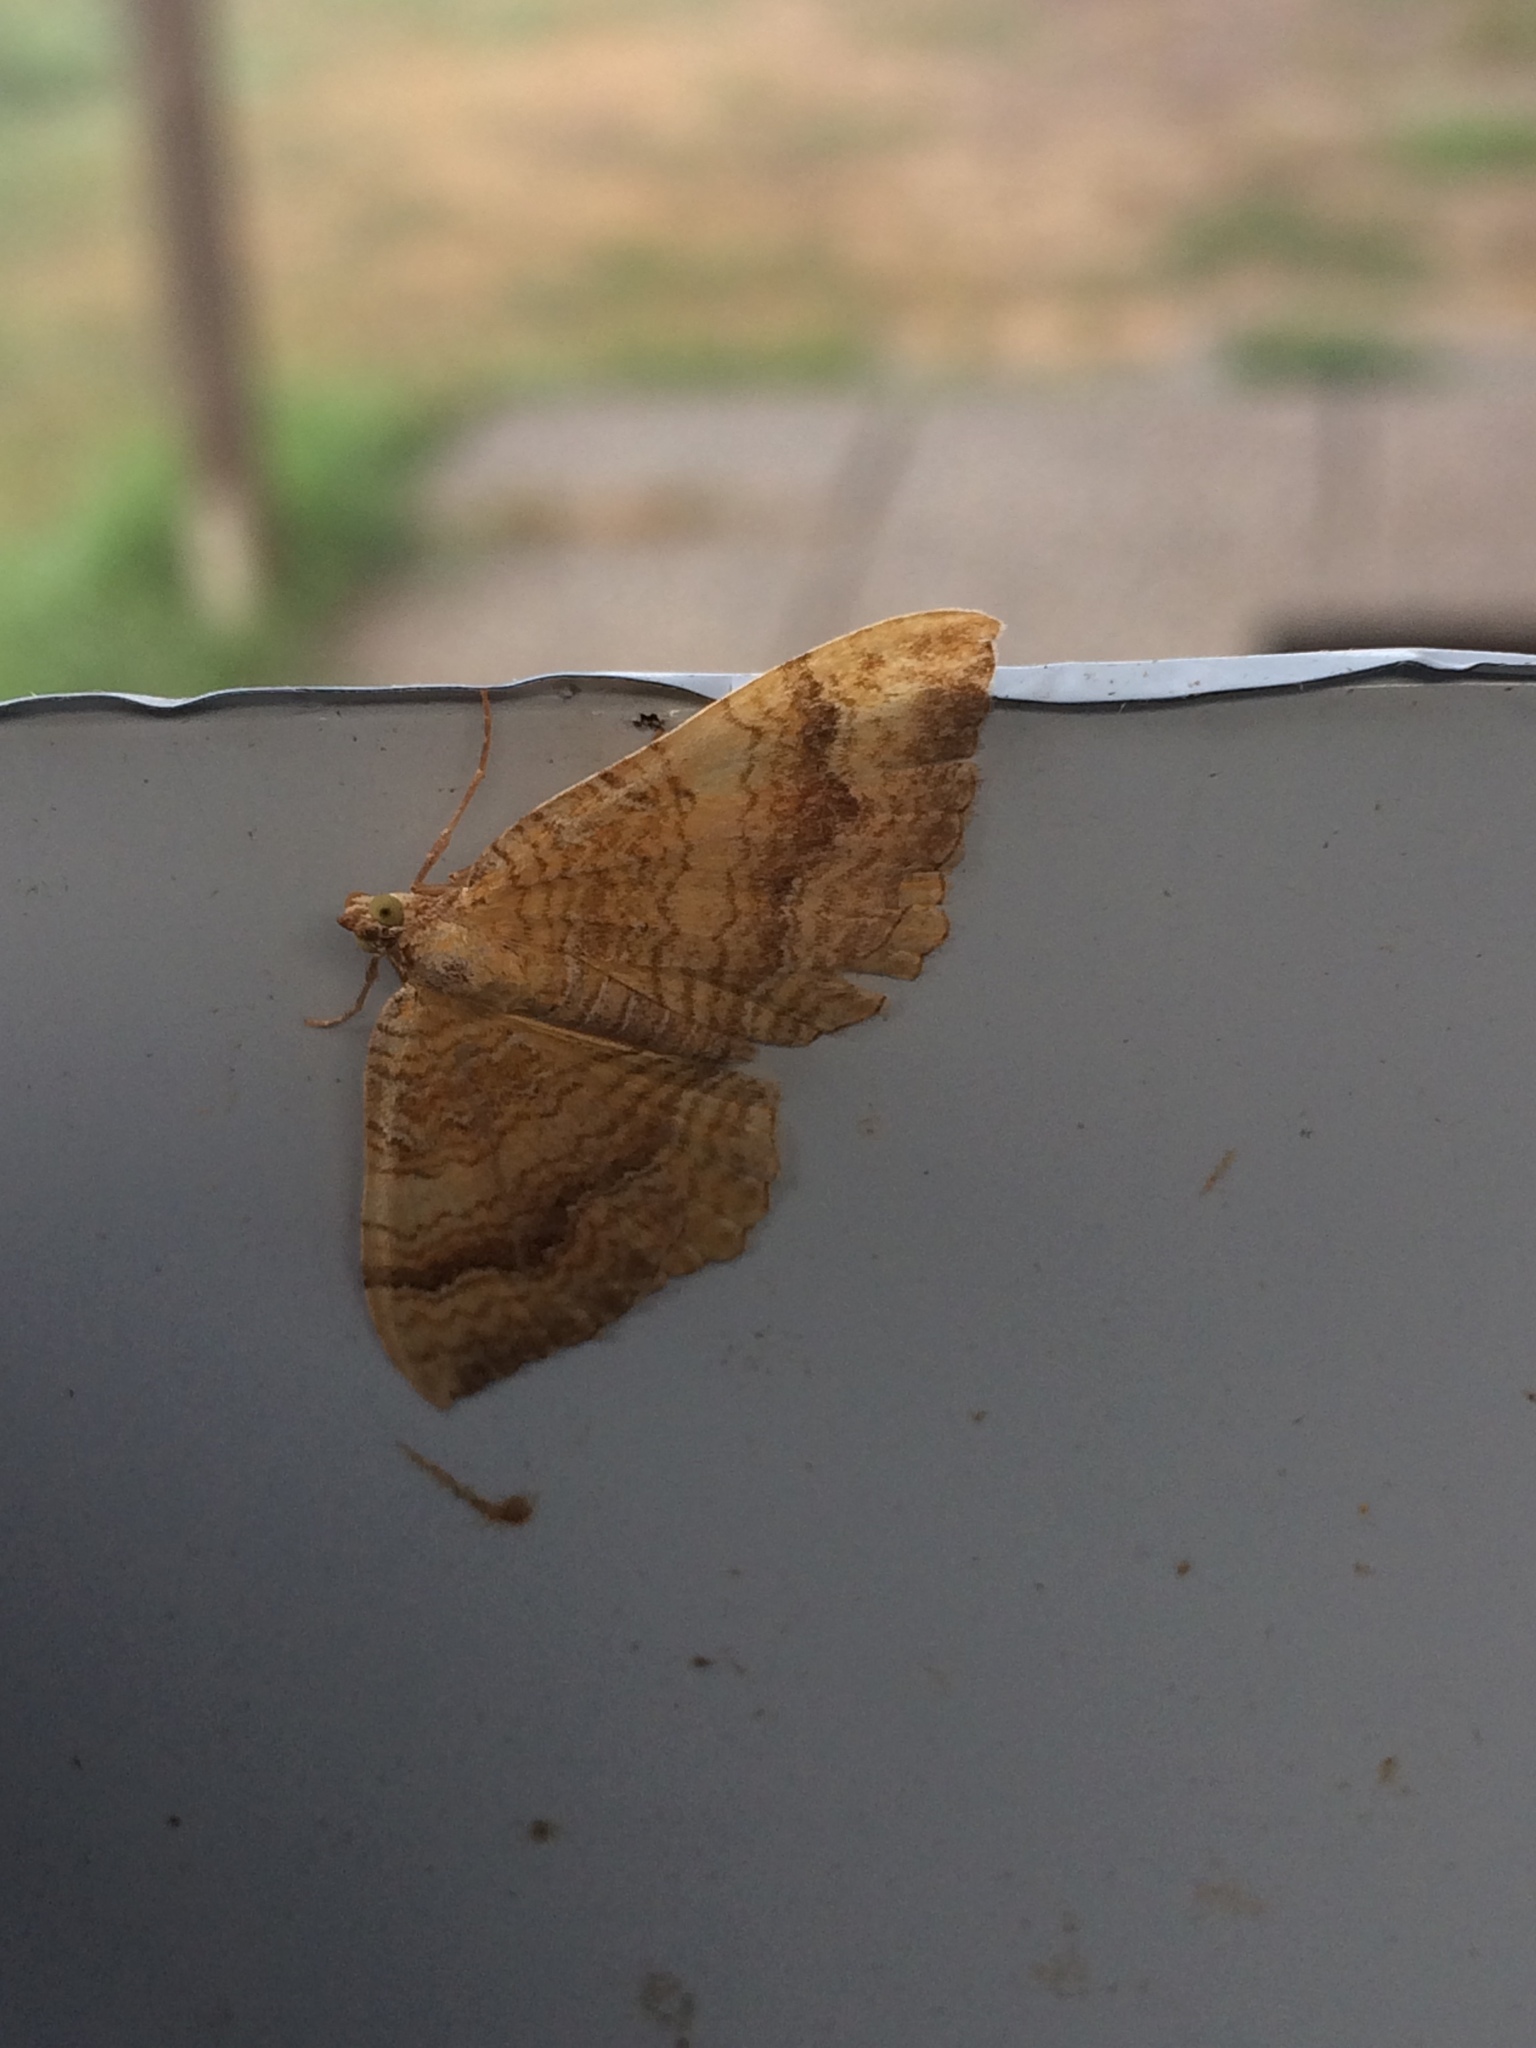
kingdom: Animalia
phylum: Arthropoda
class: Insecta
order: Lepidoptera
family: Geometridae
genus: Camptogramma
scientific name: Camptogramma bilineata
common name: Yellow shell
